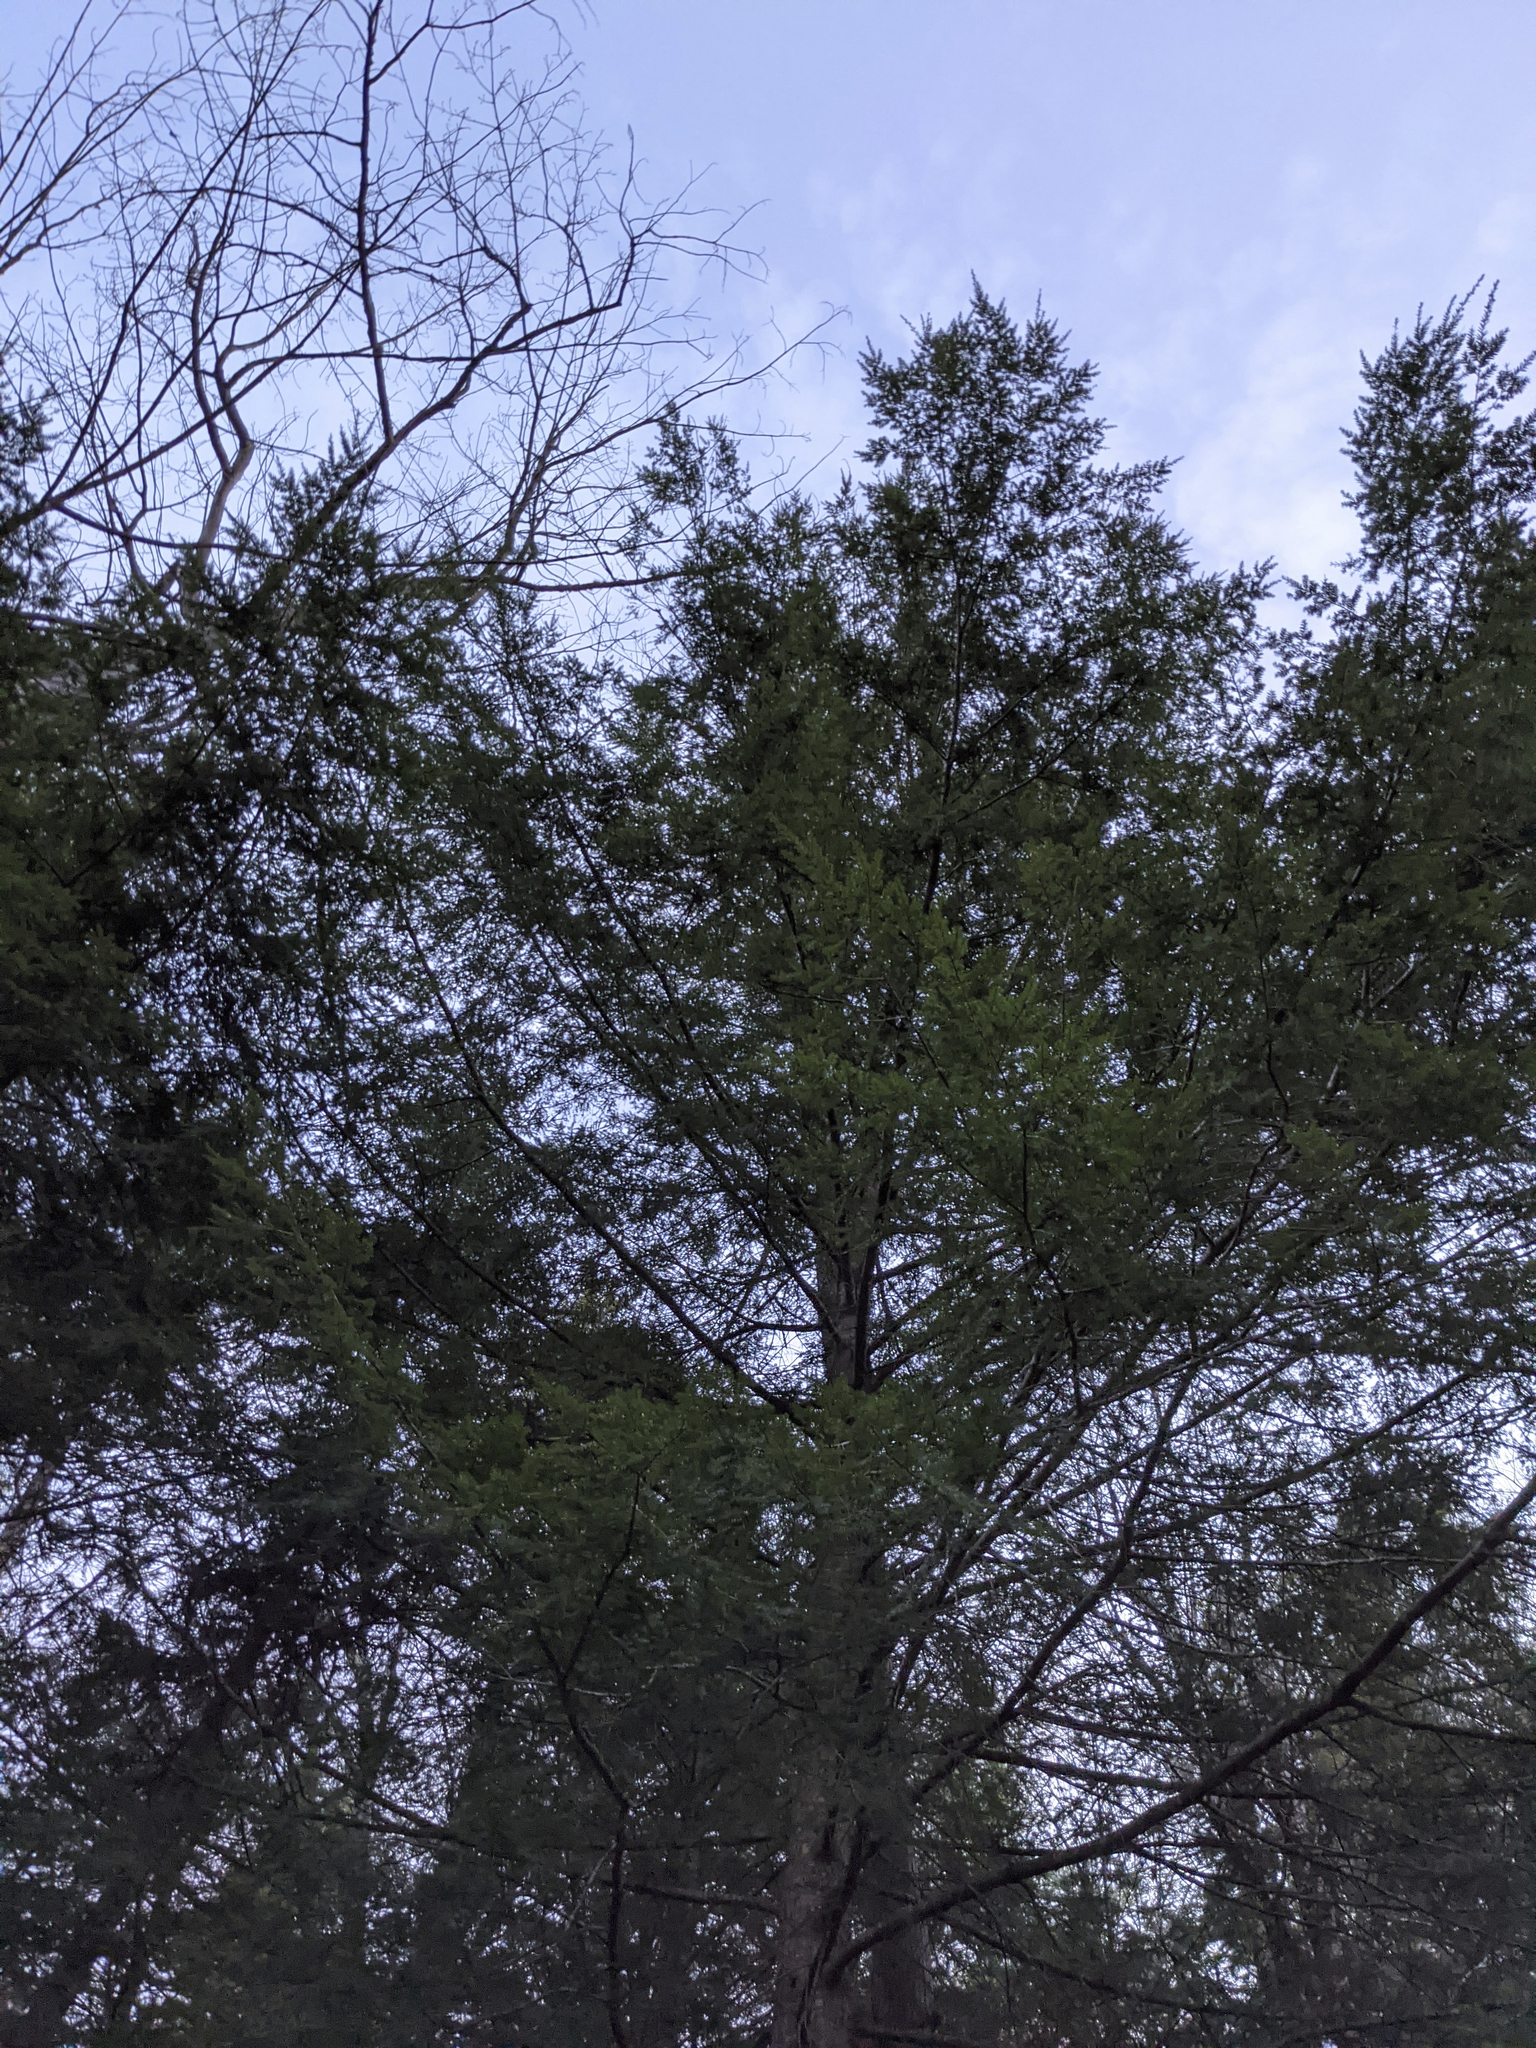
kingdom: Plantae
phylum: Tracheophyta
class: Pinopsida
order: Pinales
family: Pinaceae
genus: Tsuga
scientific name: Tsuga canadensis
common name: Eastern hemlock
